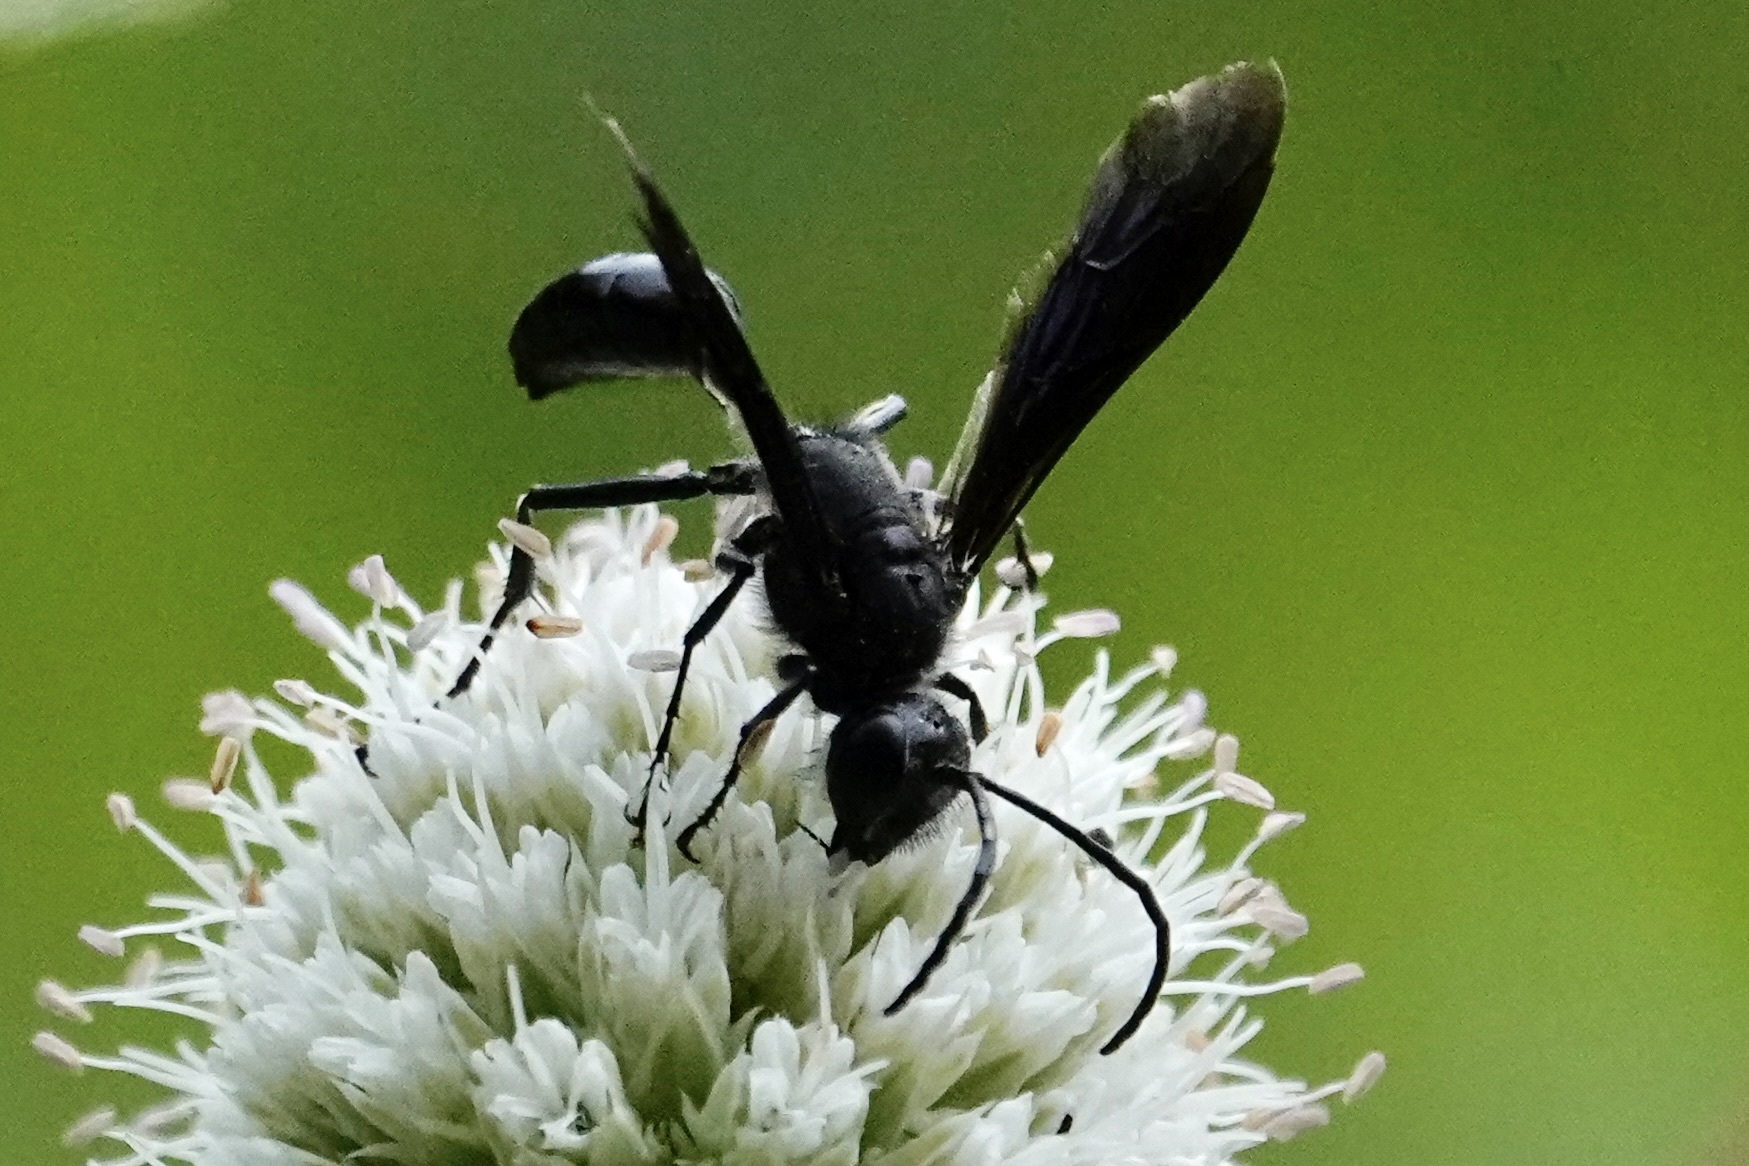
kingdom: Animalia
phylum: Arthropoda
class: Insecta
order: Hymenoptera
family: Sphecidae
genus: Isodontia
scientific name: Isodontia philadelphica
